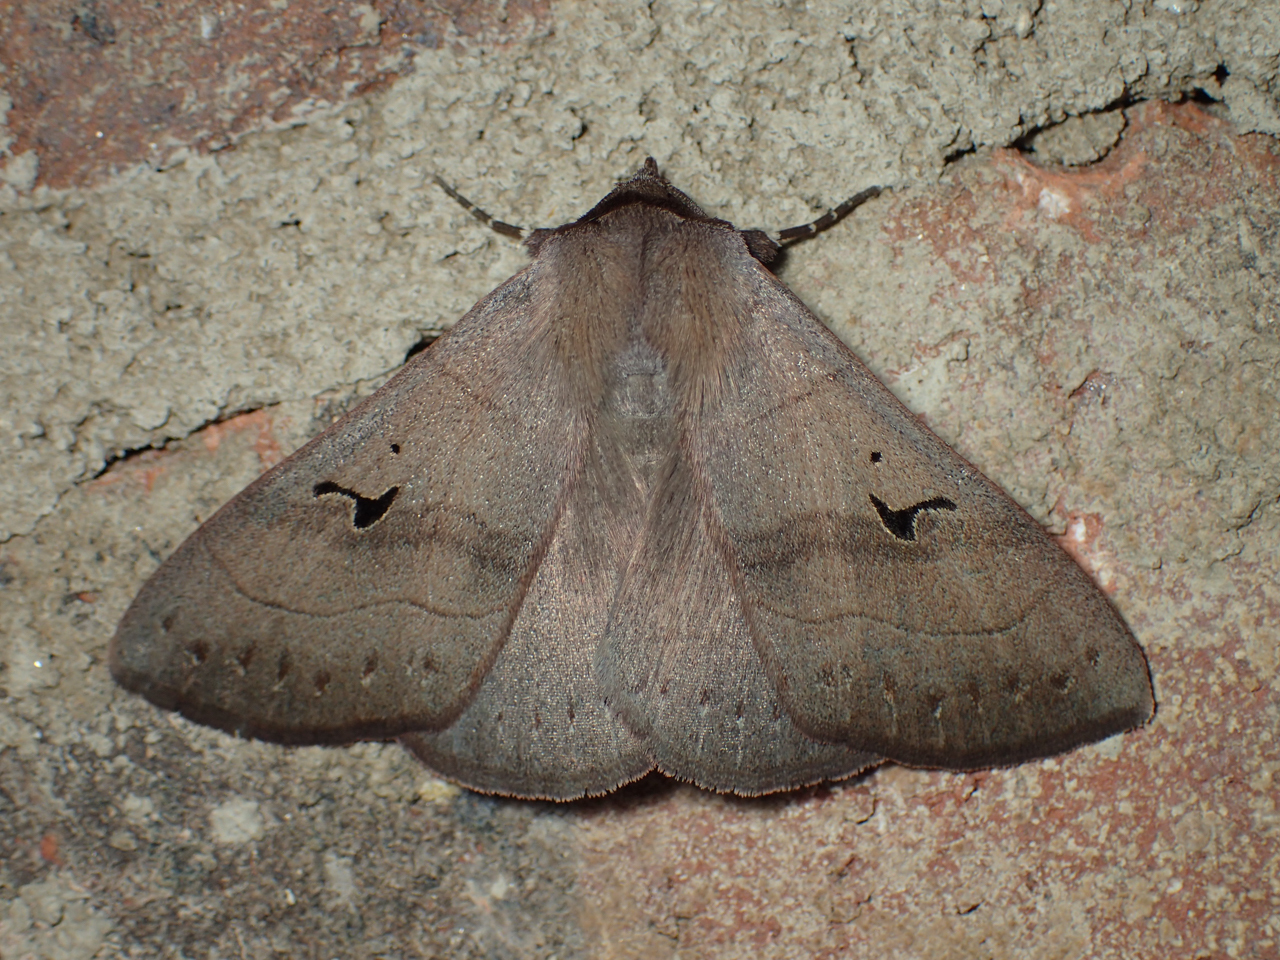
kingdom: Animalia
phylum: Arthropoda
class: Insecta
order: Lepidoptera
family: Erebidae
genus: Panopoda
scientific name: Panopoda carneicosta
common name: Brown panopoda moth
